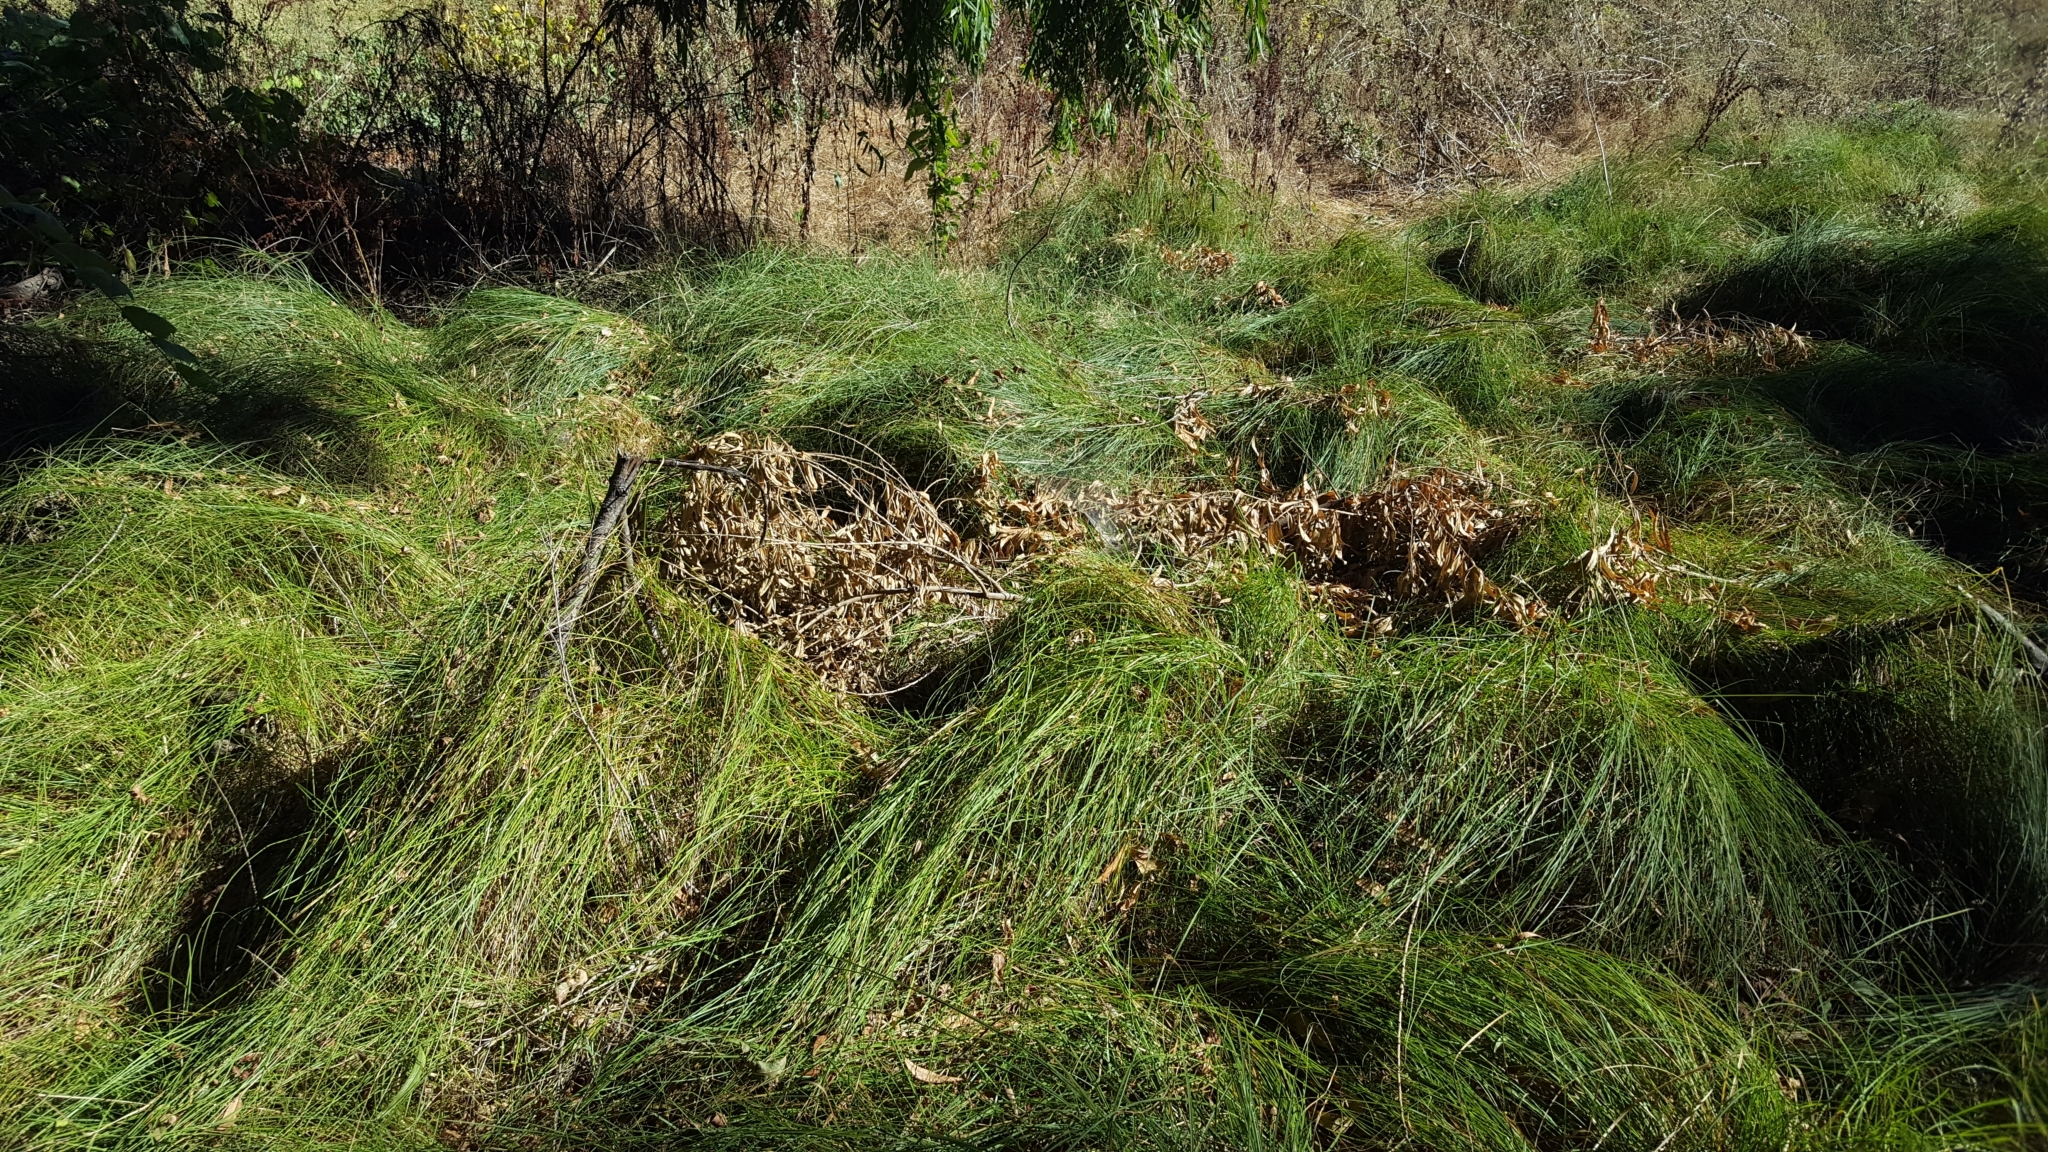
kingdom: Plantae
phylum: Tracheophyta
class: Liliopsida
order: Poales
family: Cyperaceae
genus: Carex
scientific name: Carex praegracilis
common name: Black creeper sedge
